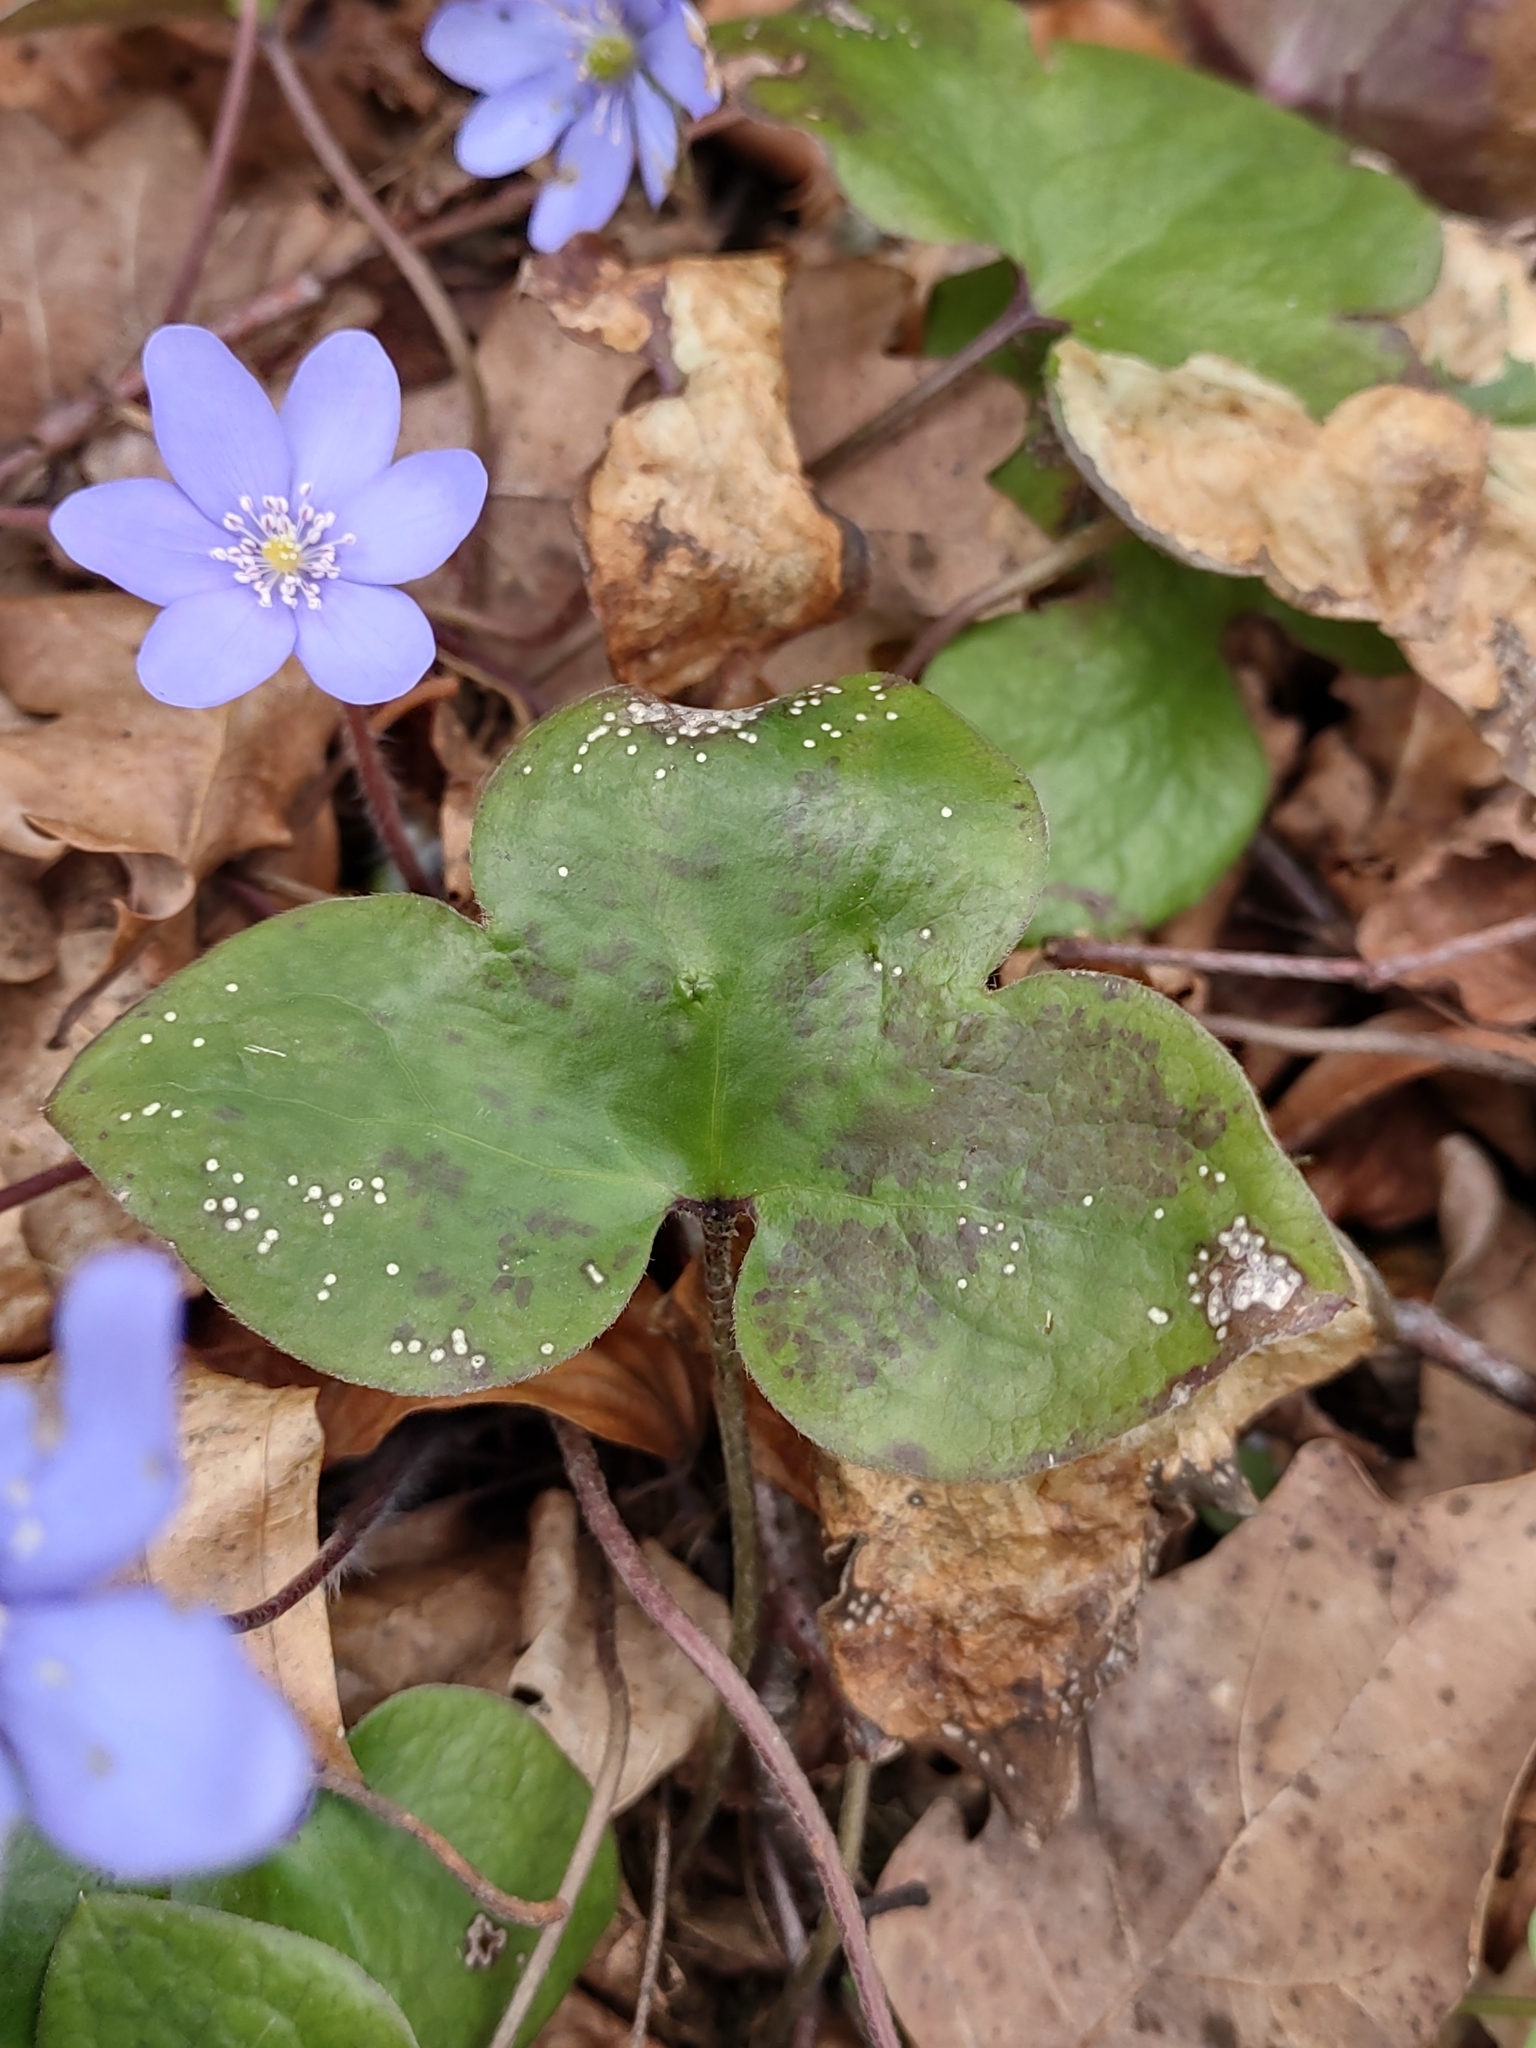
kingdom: Plantae
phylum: Tracheophyta
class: Magnoliopsida
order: Ranunculales
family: Ranunculaceae
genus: Hepatica
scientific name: Hepatica nobilis
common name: Liverleaf
